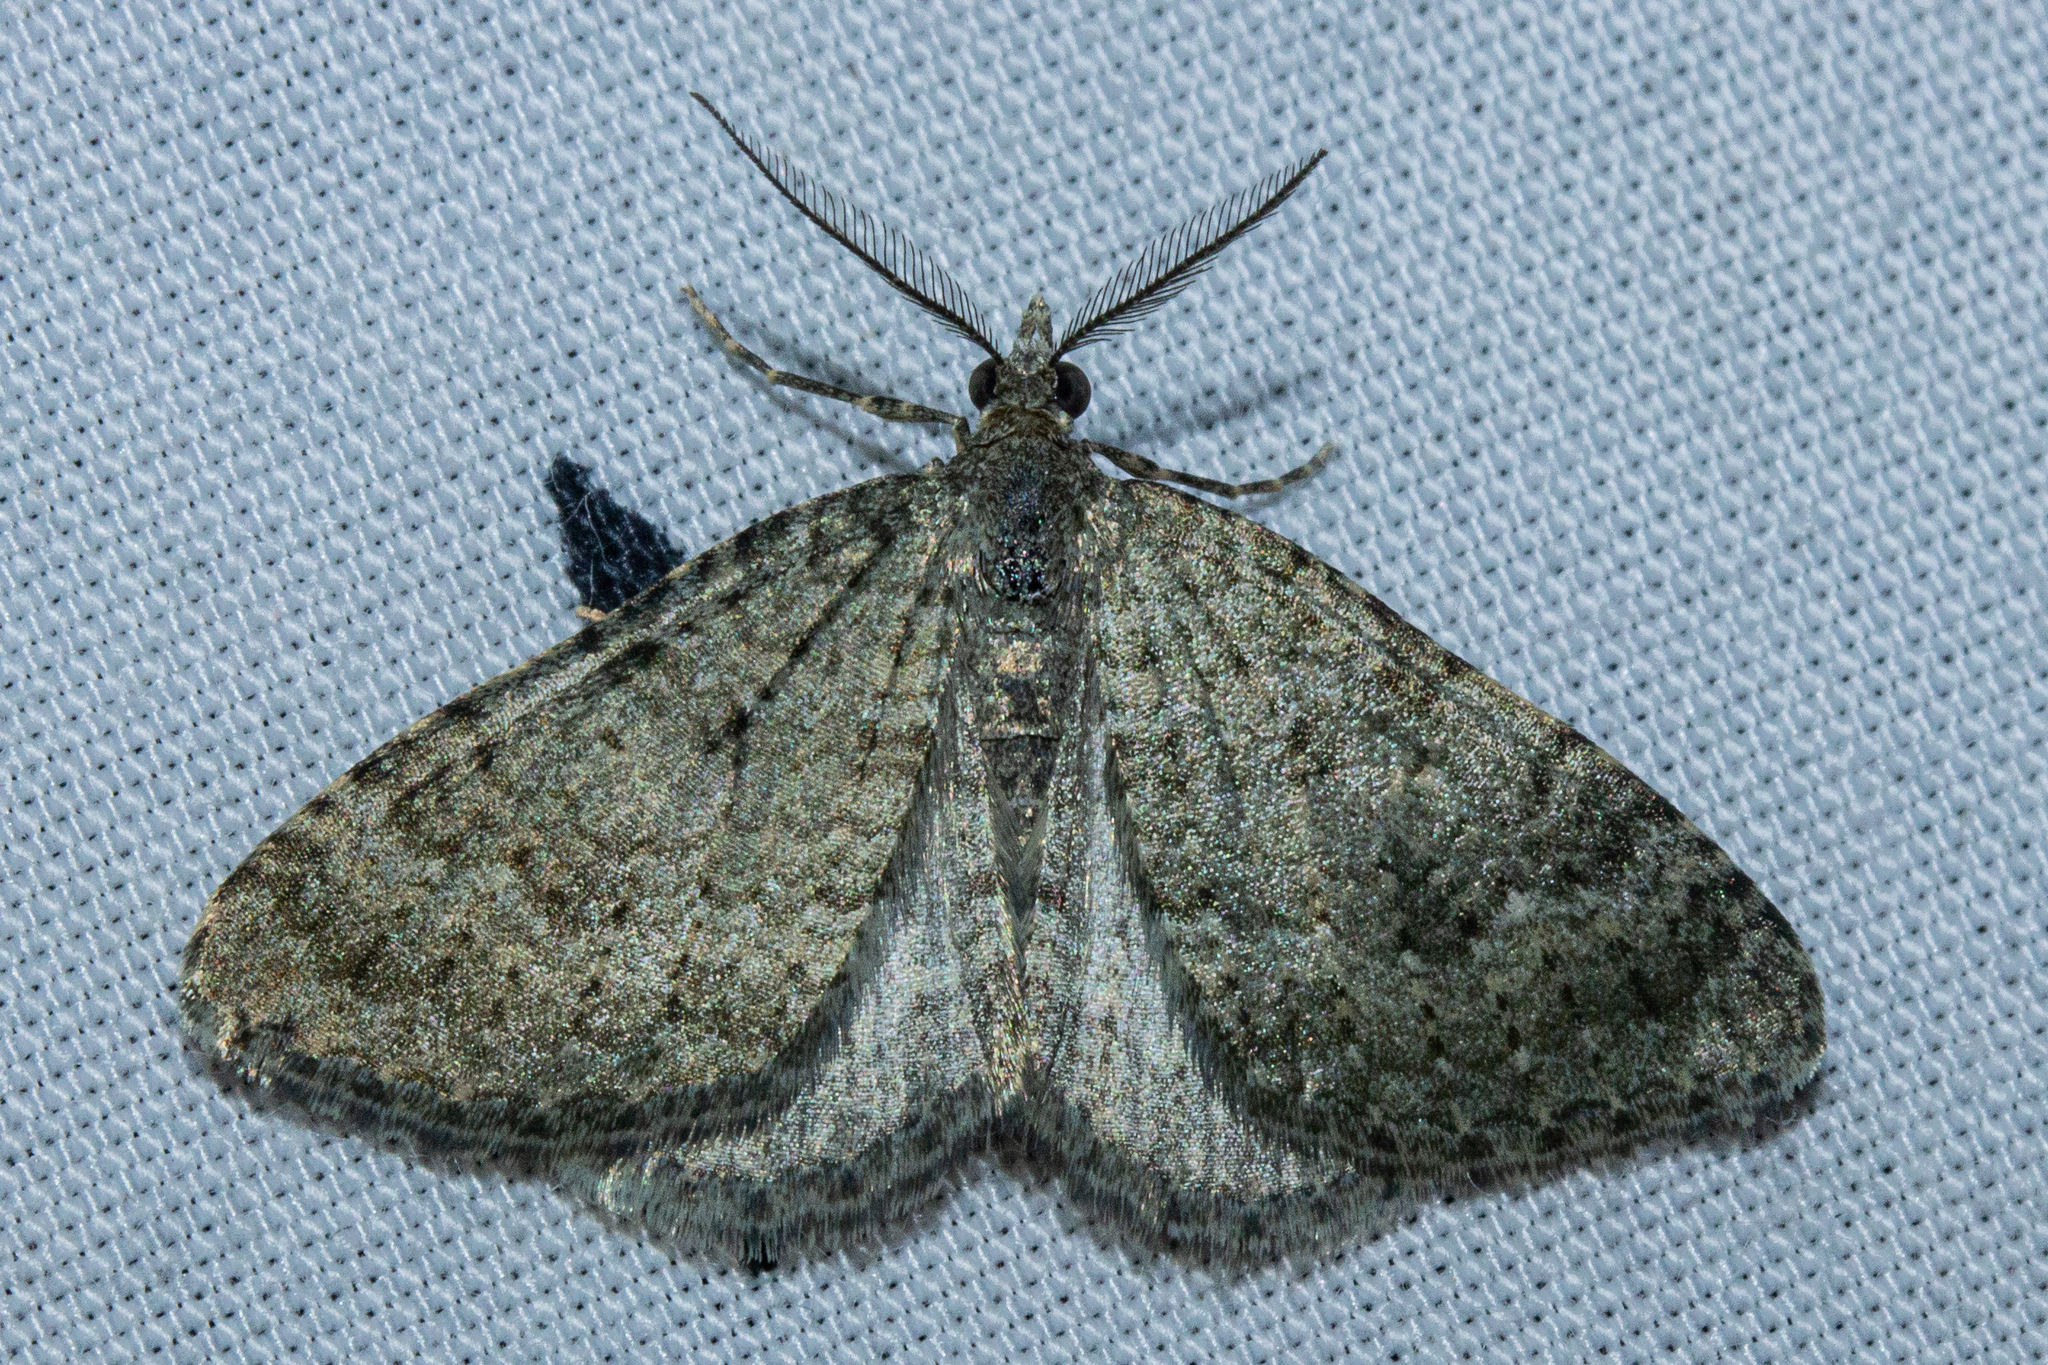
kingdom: Animalia
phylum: Arthropoda
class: Insecta
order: Lepidoptera
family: Geometridae
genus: Helastia
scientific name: Helastia corcularia
